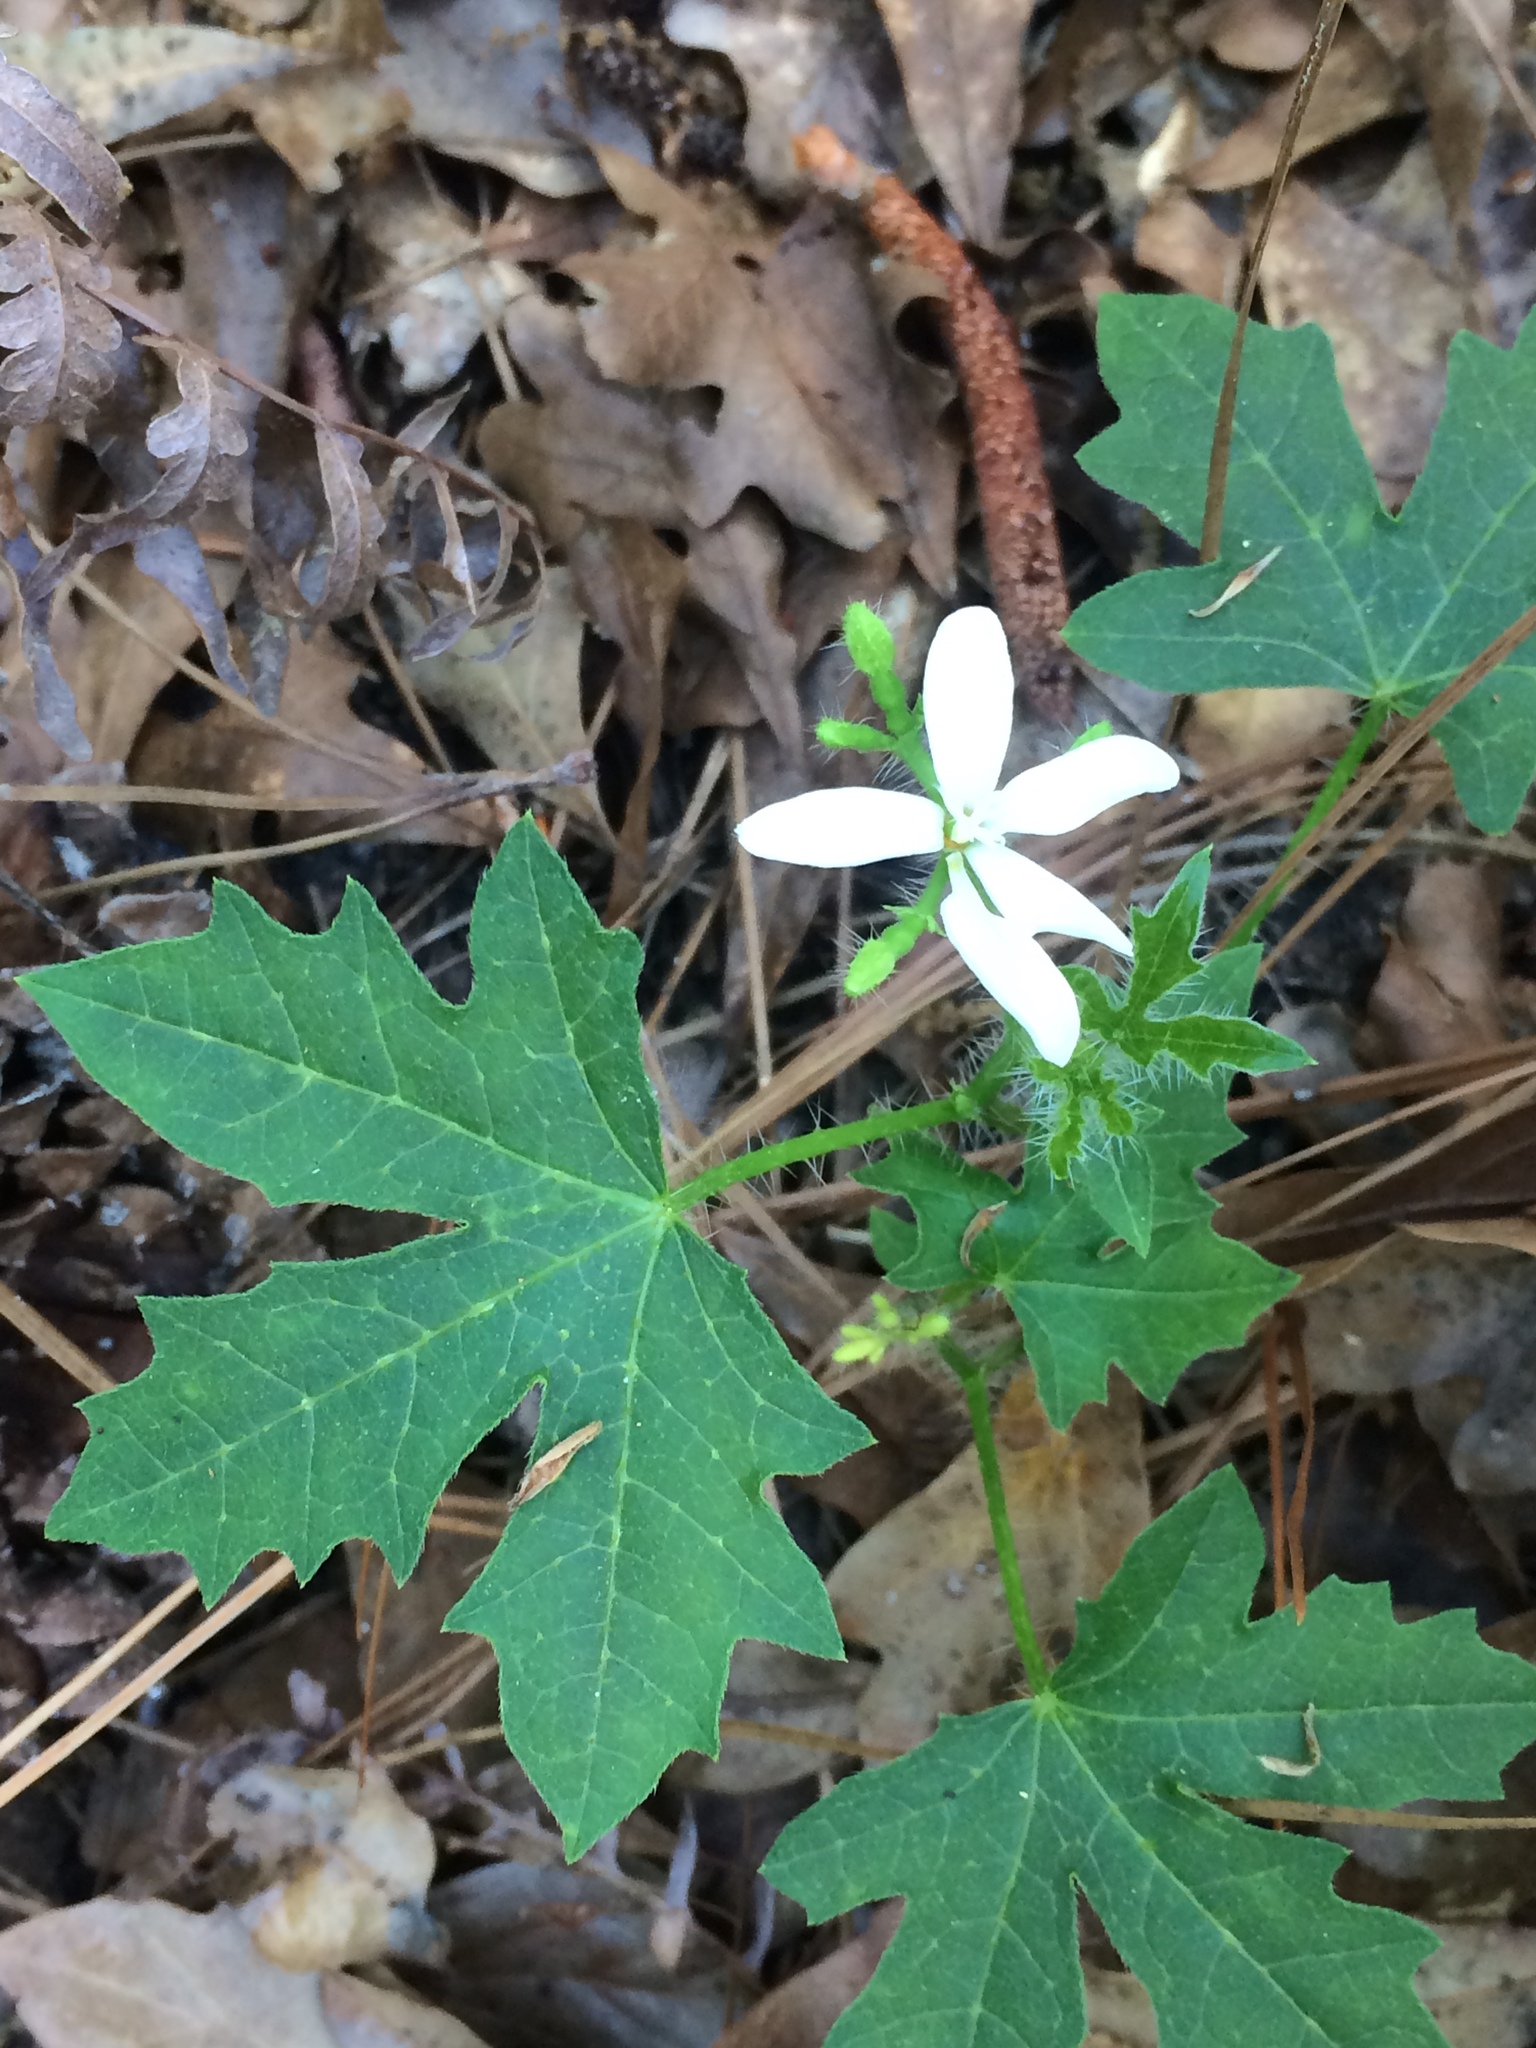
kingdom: Plantae
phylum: Tracheophyta
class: Magnoliopsida
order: Malpighiales
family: Euphorbiaceae
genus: Cnidoscolus
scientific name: Cnidoscolus stimulosus
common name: Bull-nettle
